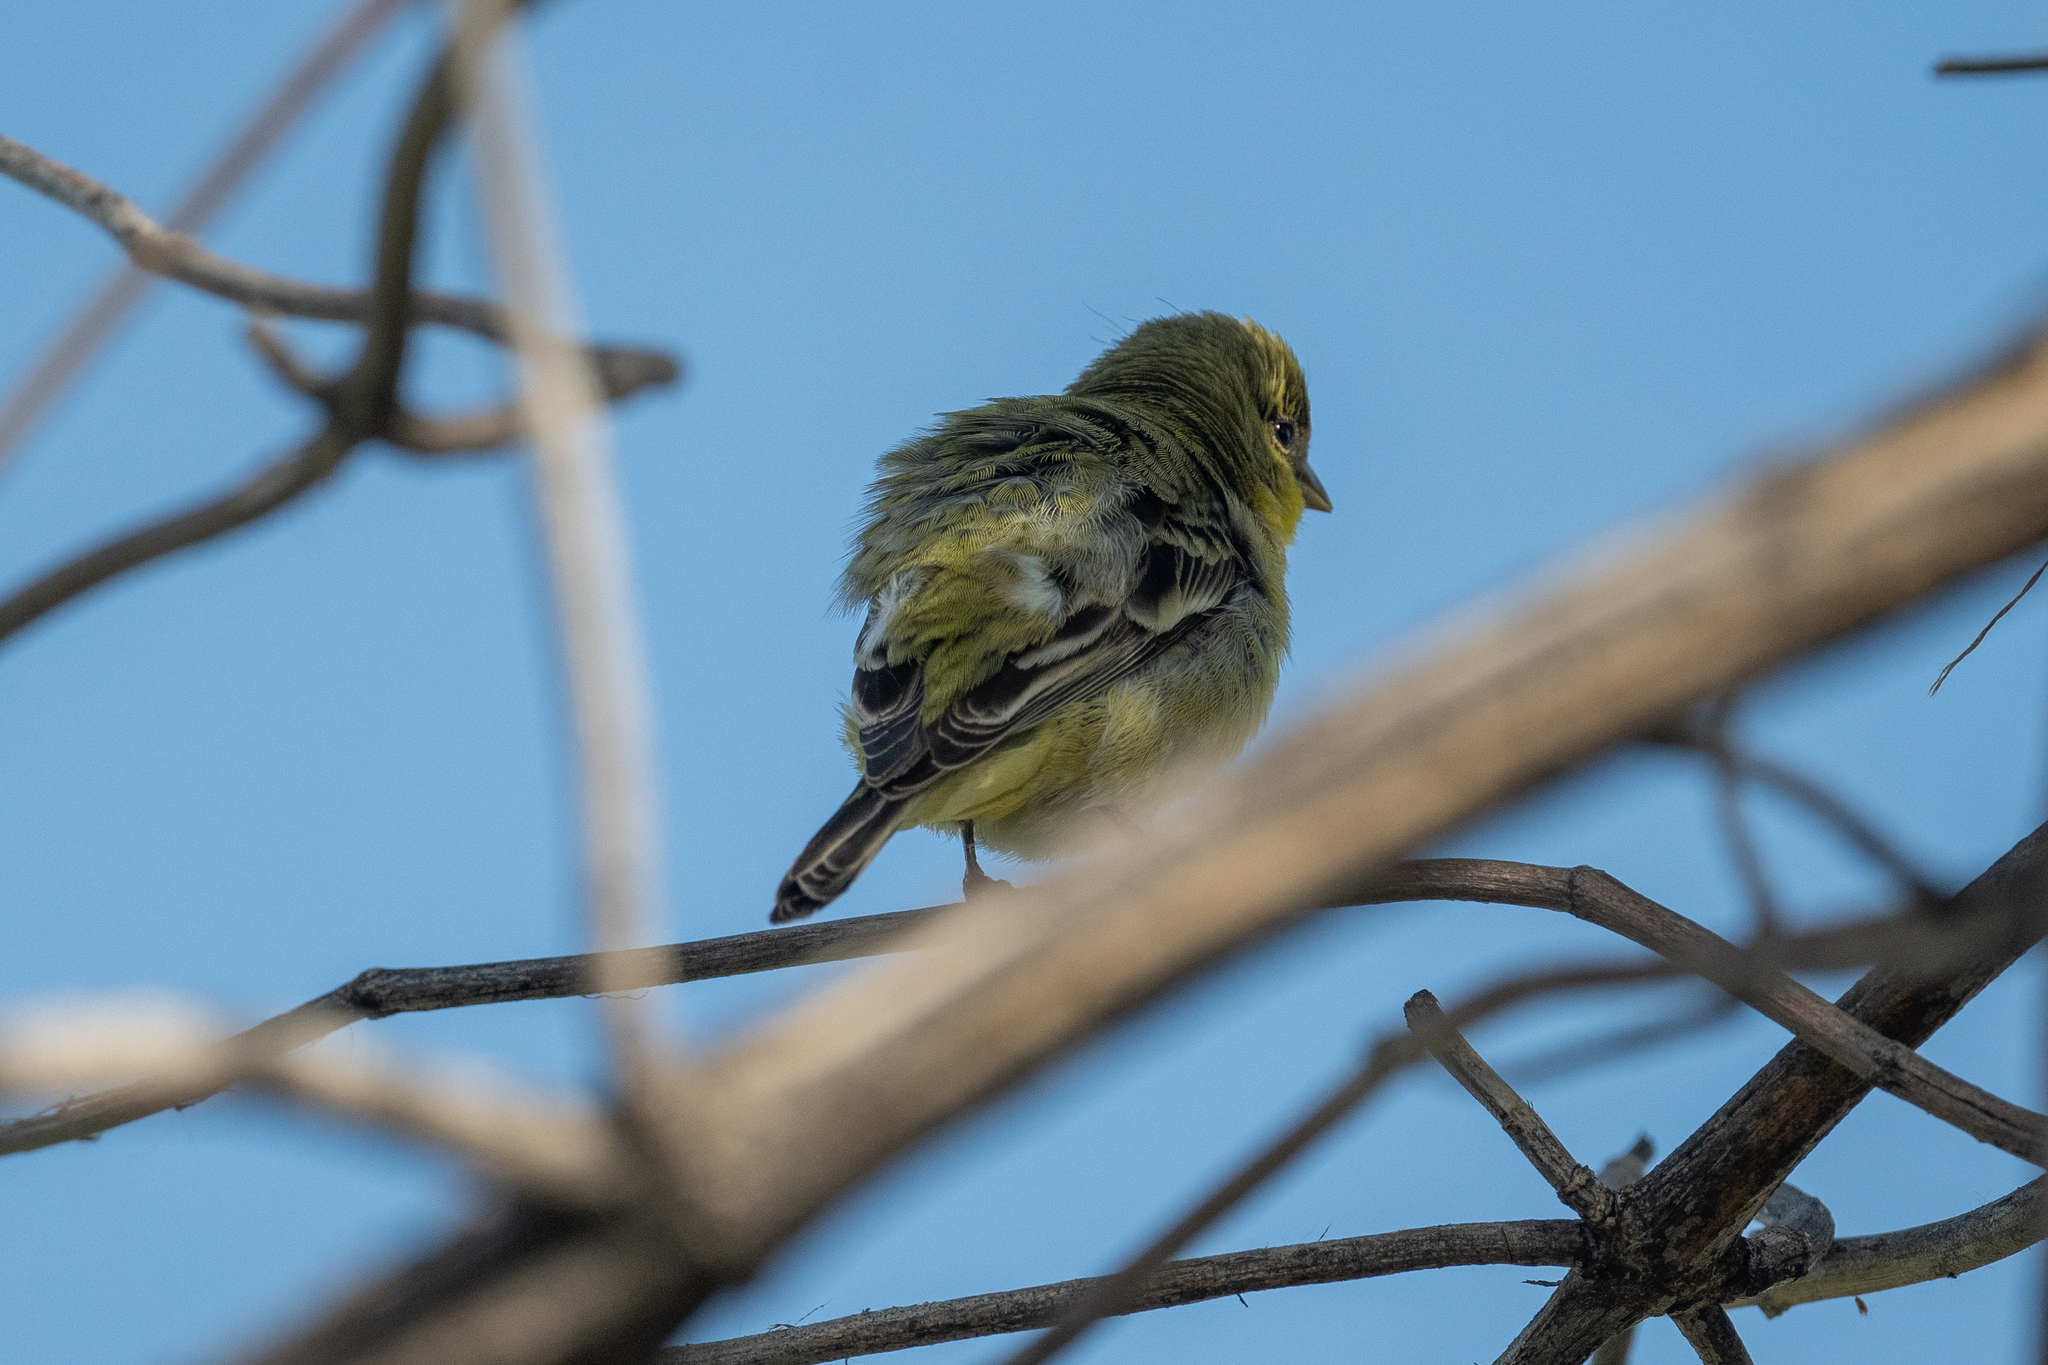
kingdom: Animalia
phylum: Chordata
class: Aves
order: Passeriformes
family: Fringillidae
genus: Spinus
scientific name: Spinus psaltria
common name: Lesser goldfinch
